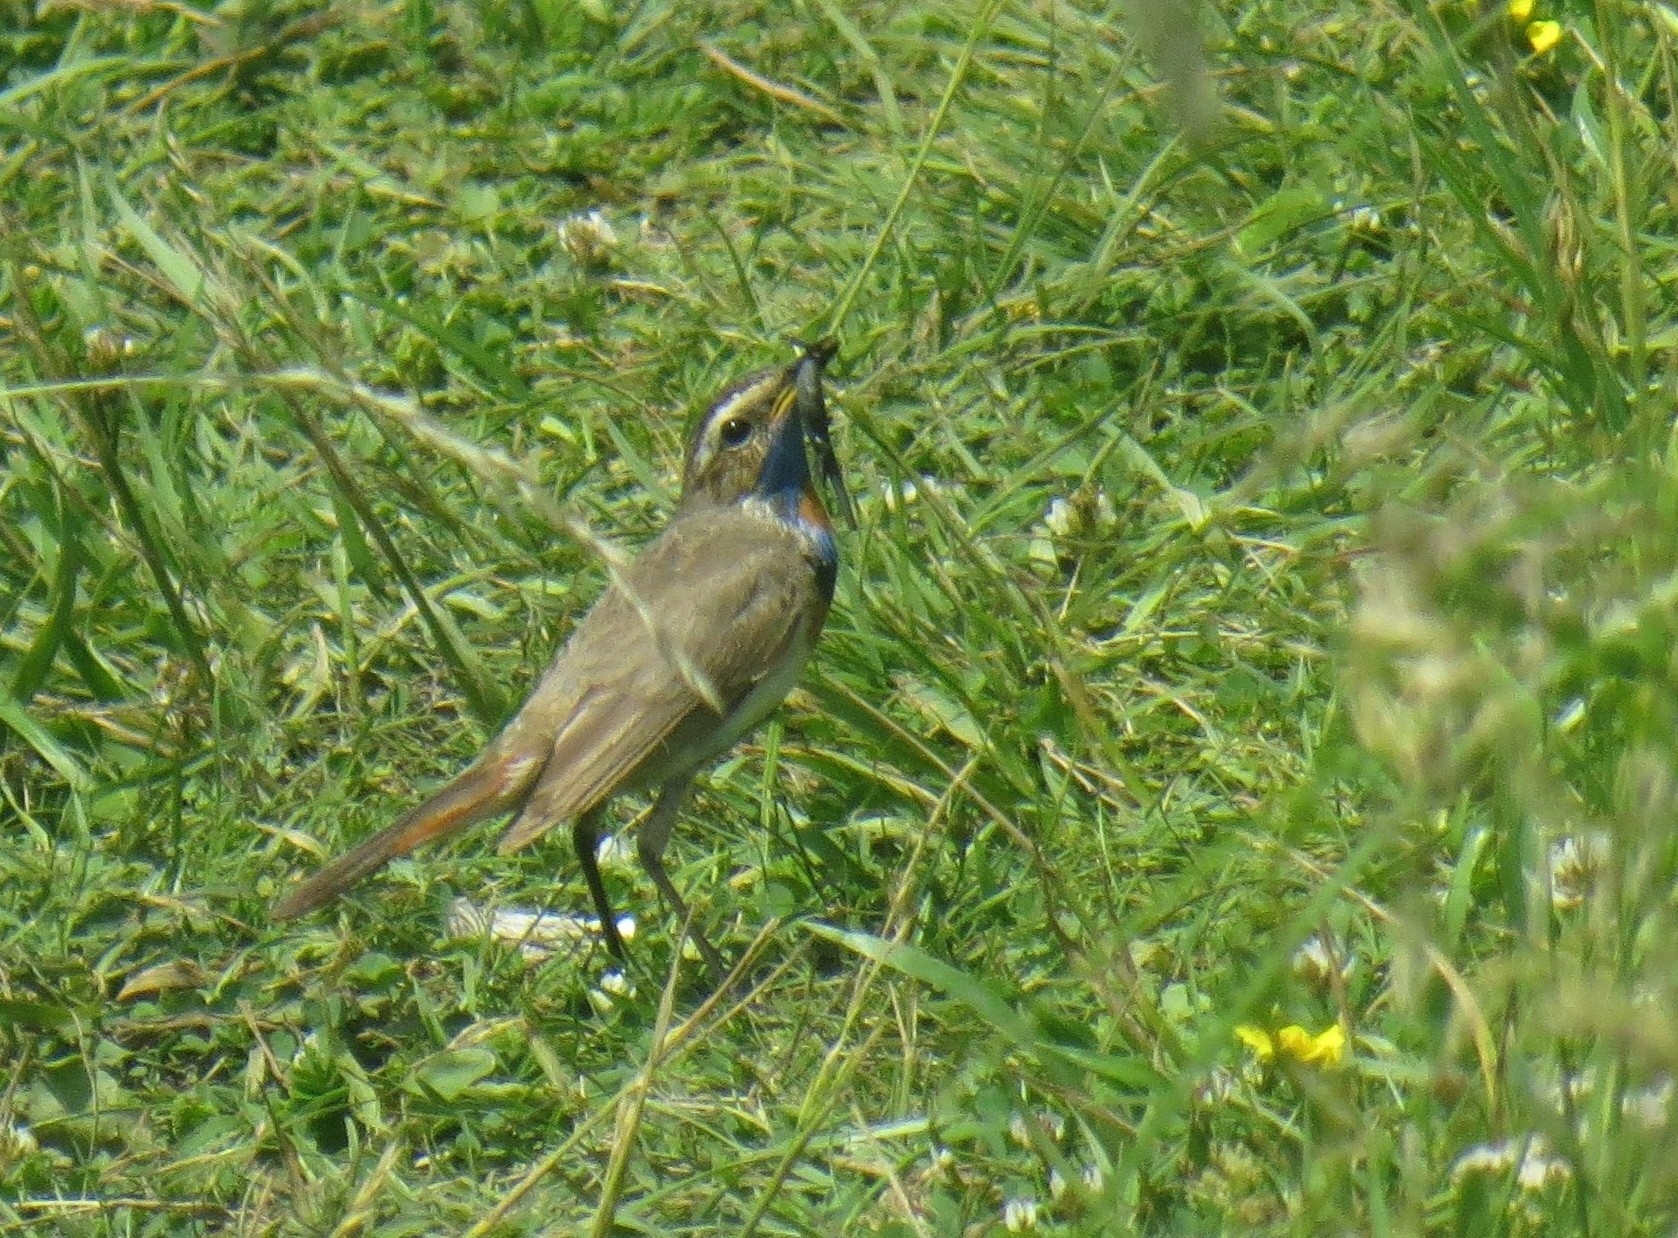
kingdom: Animalia
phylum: Chordata
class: Aves
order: Passeriformes
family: Muscicapidae
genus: Luscinia
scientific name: Luscinia svecica
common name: Bluethroat
